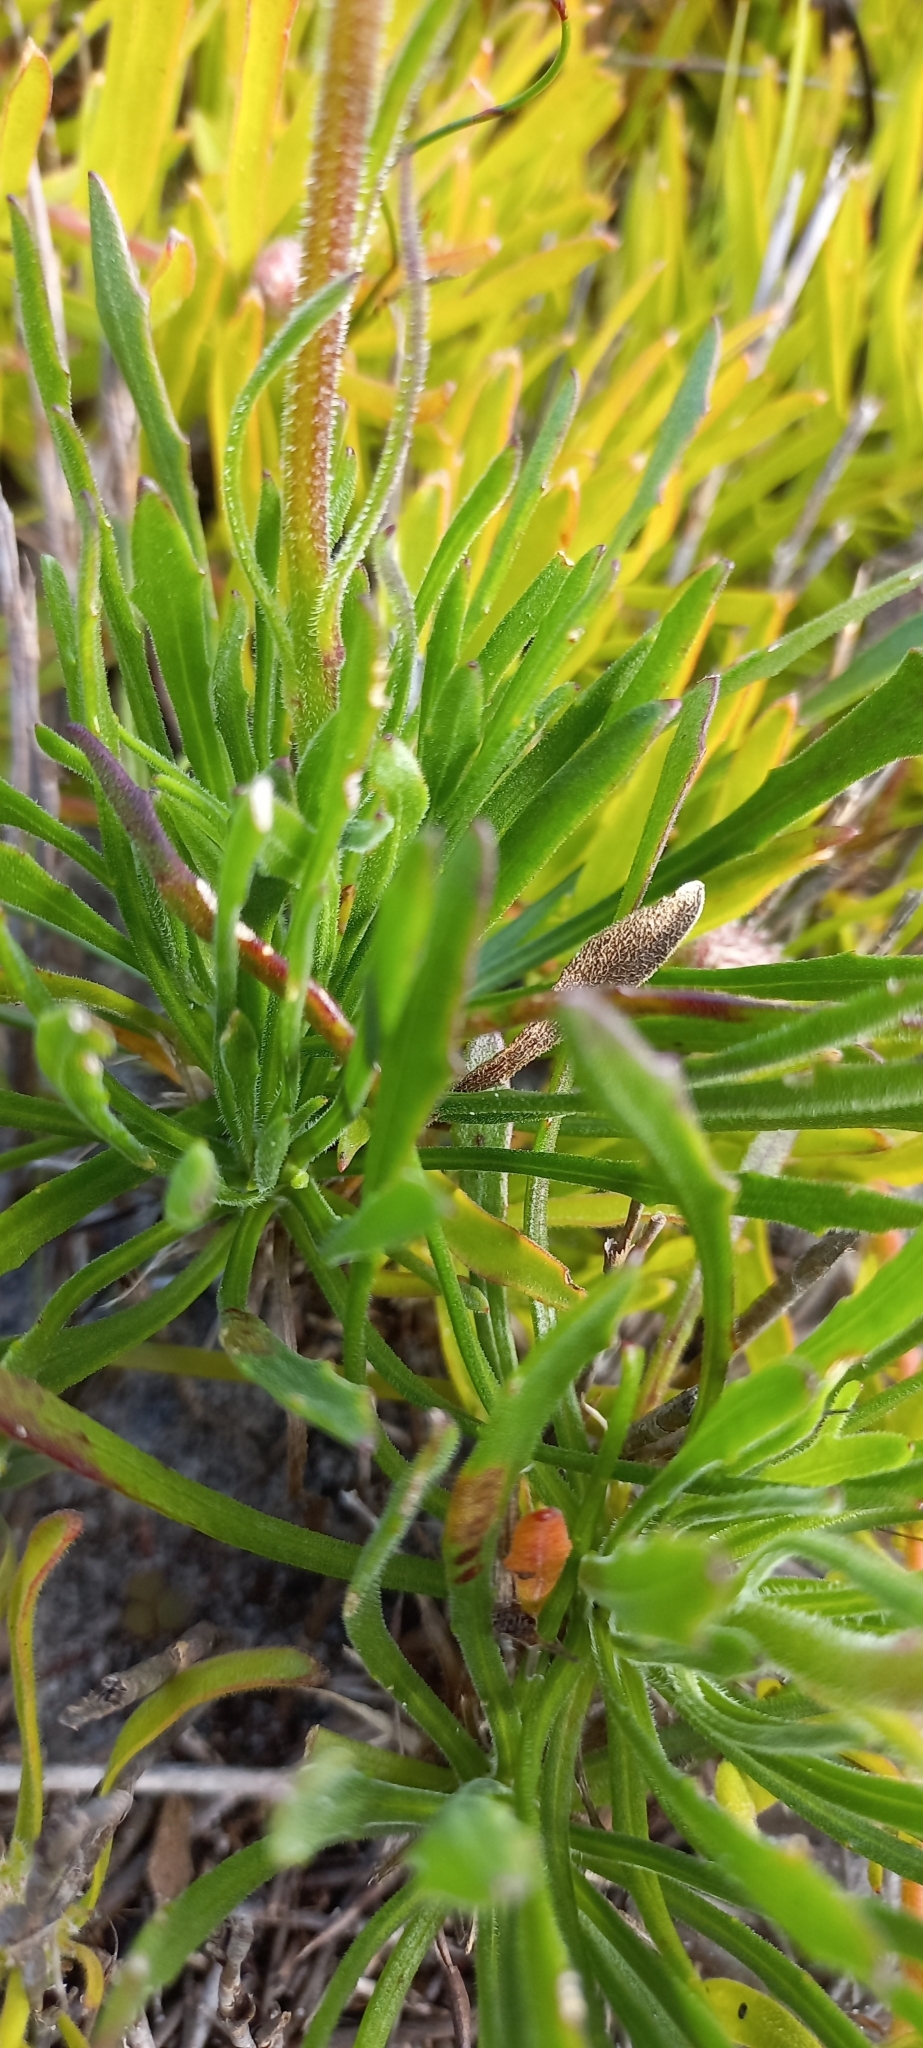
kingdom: Plantae
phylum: Tracheophyta
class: Magnoliopsida
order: Asterales
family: Asteraceae
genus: Dimorphotheca
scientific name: Dimorphotheca nudicaulis
